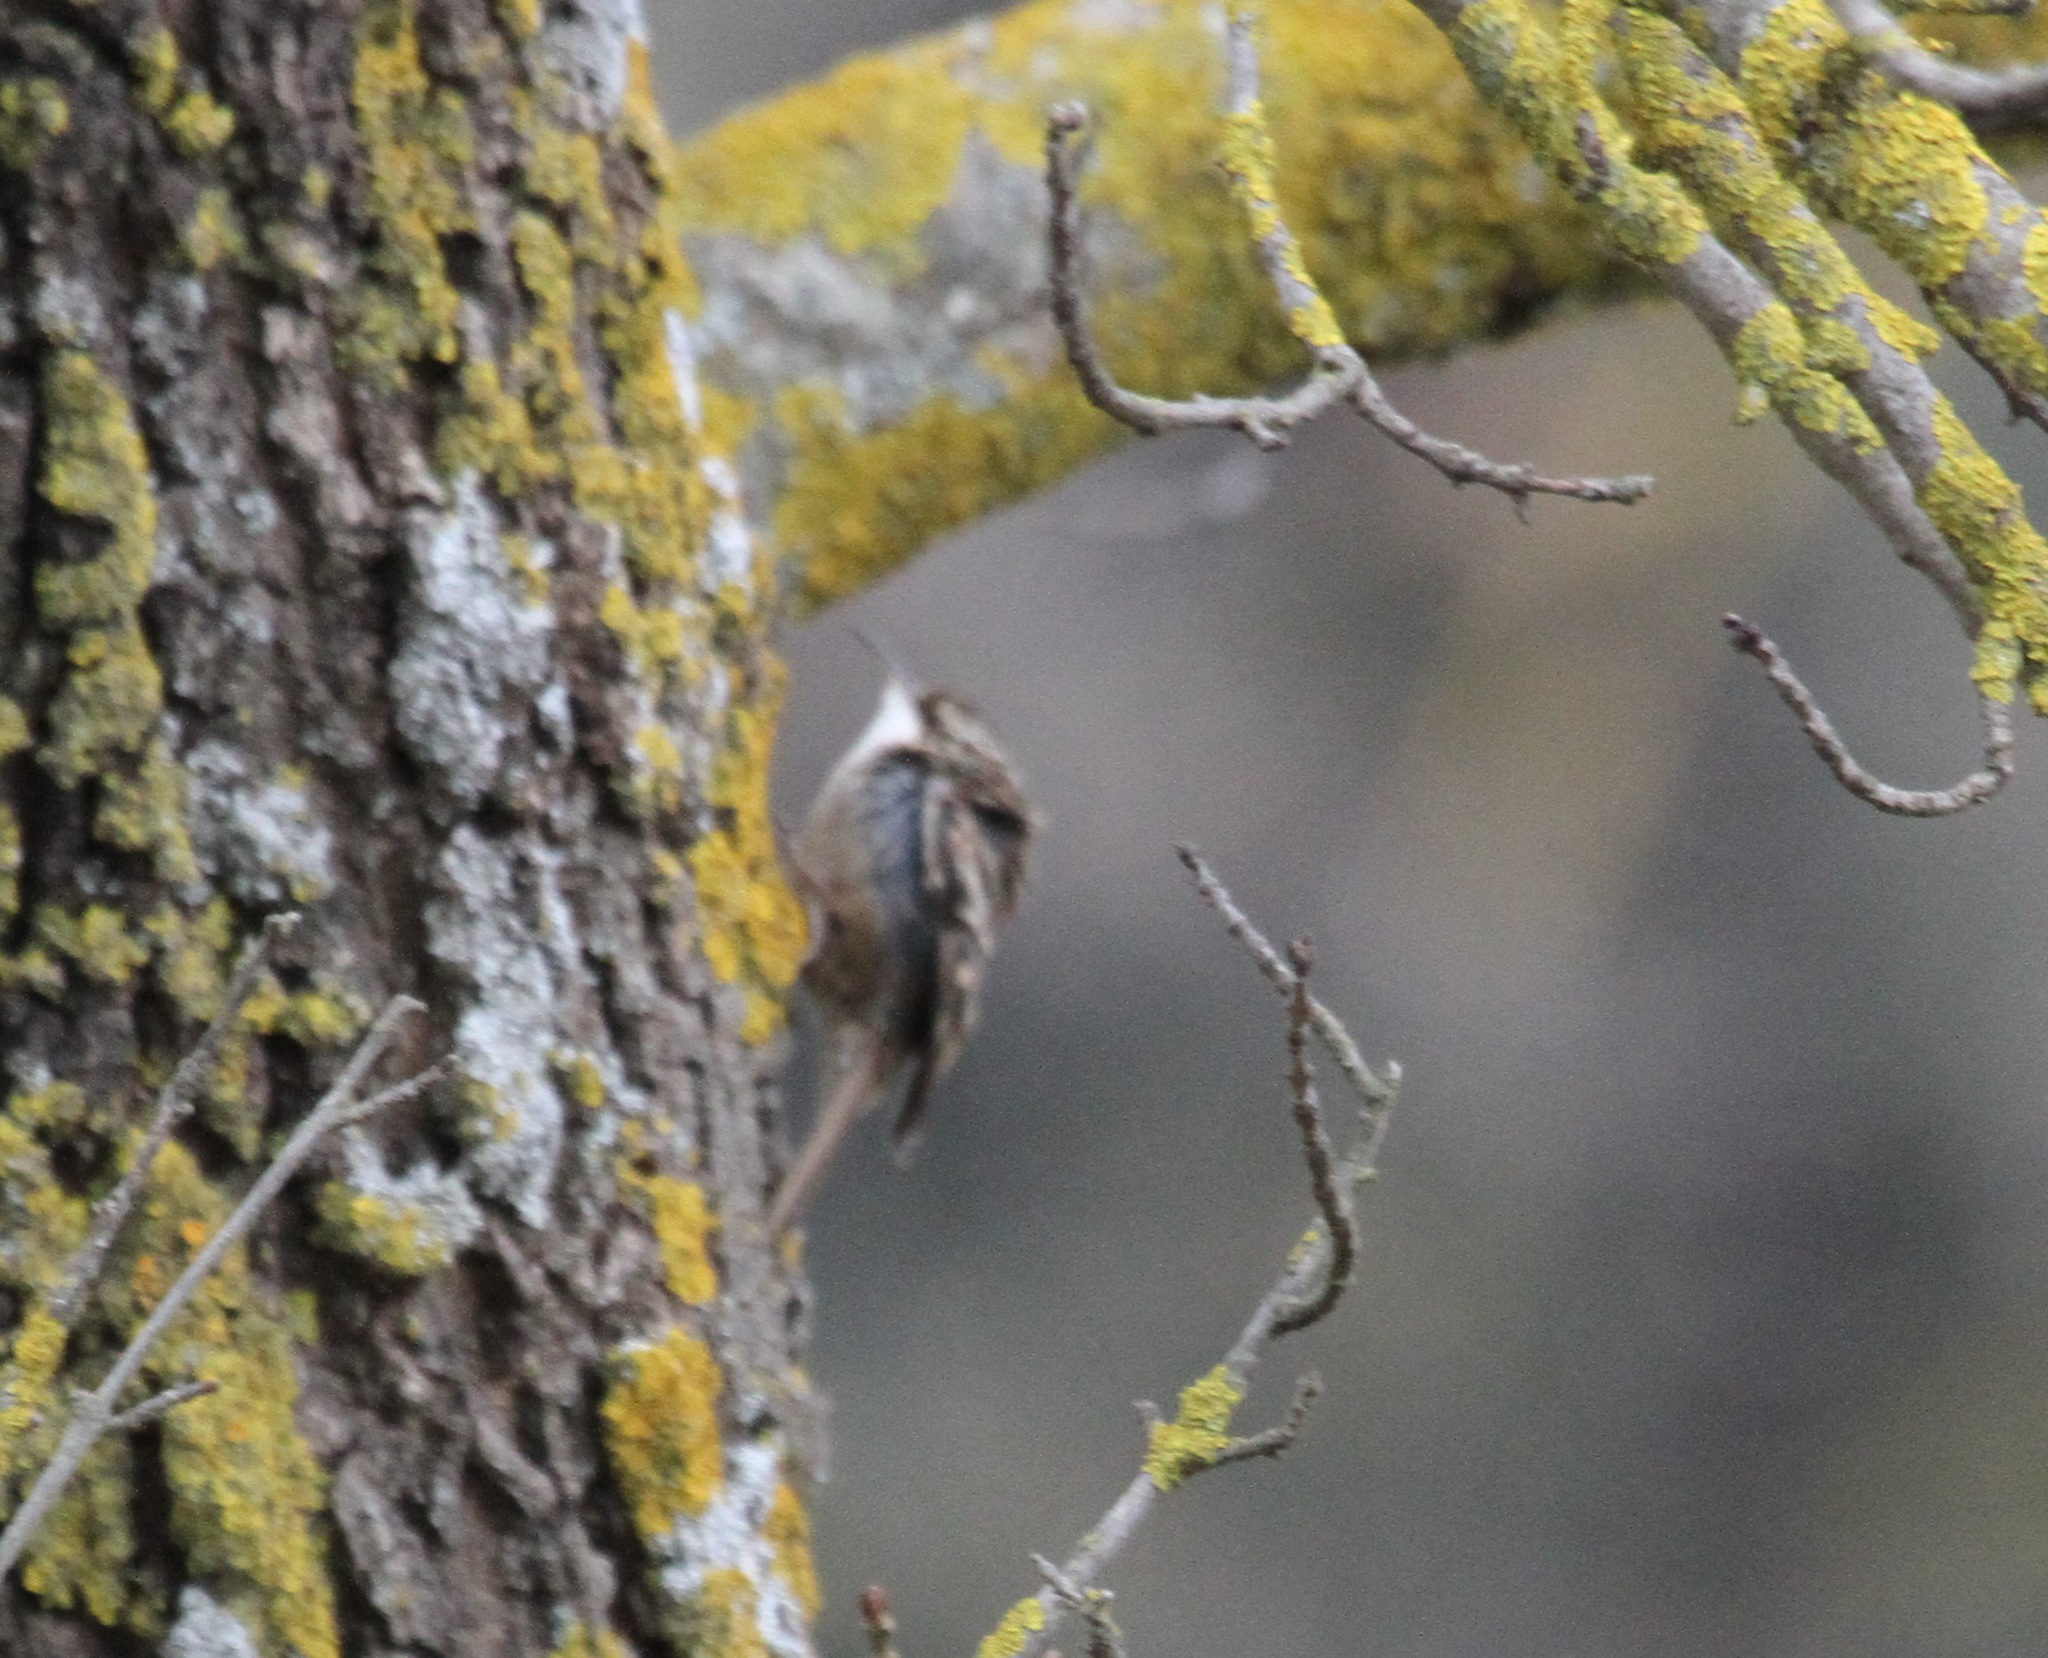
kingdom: Animalia
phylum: Chordata
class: Aves
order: Passeriformes
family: Certhiidae
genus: Certhia
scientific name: Certhia brachydactyla
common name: Short-toed treecreeper
